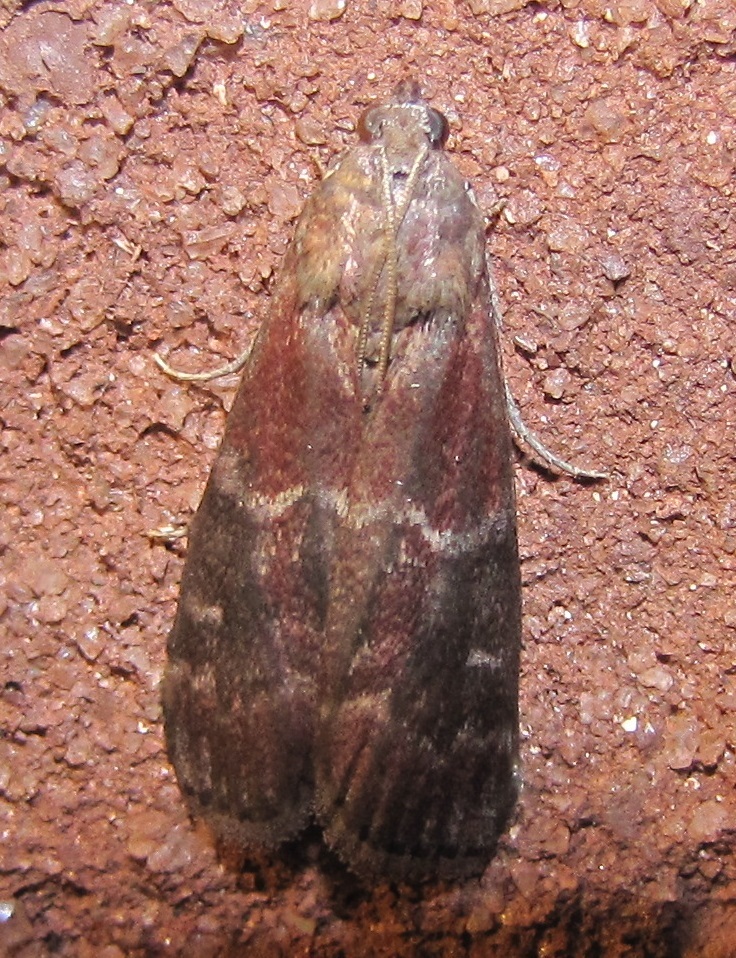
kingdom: Animalia
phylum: Arthropoda
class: Insecta
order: Lepidoptera
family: Pyralidae
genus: Euzophera
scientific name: Euzophera ostricolorella
